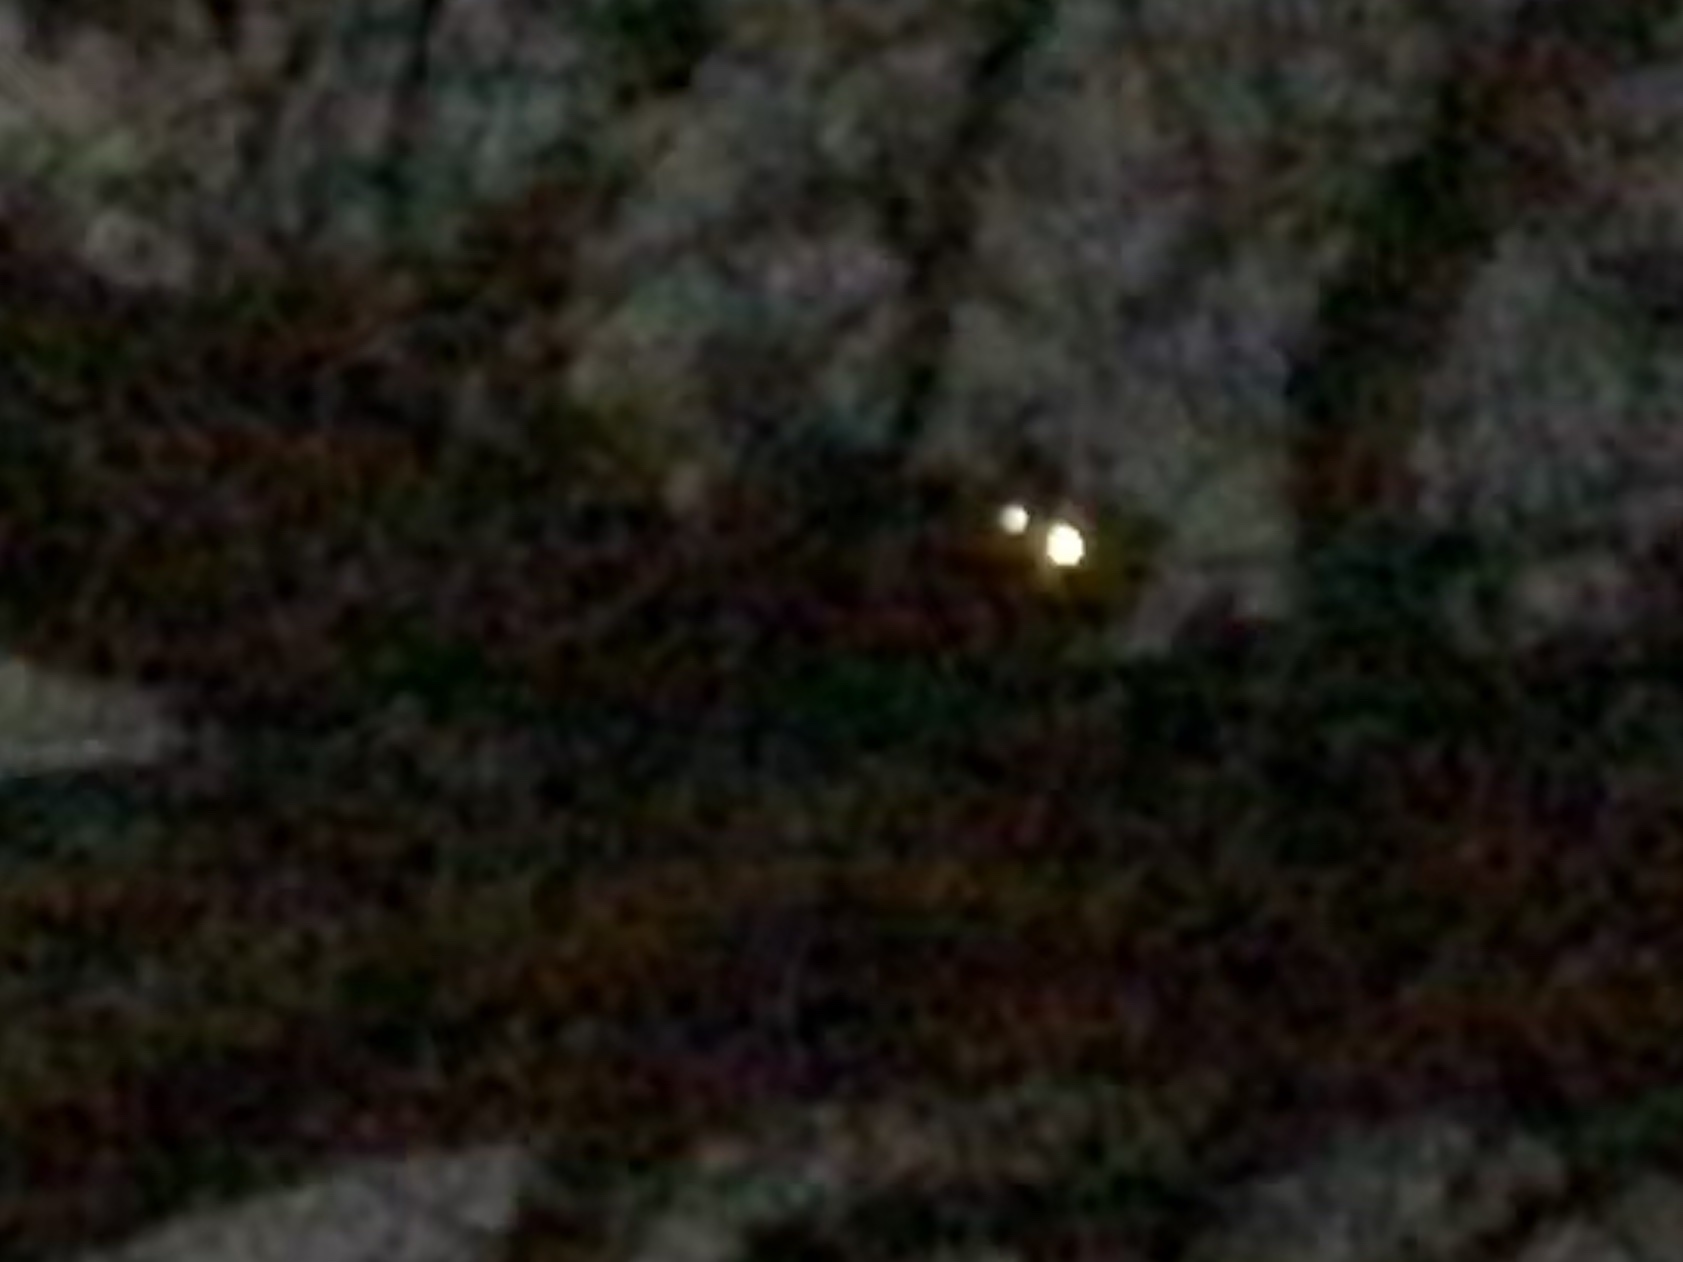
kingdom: Animalia
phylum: Chordata
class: Mammalia
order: Carnivora
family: Procyonidae
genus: Procyon
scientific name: Procyon lotor
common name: Raccoon
